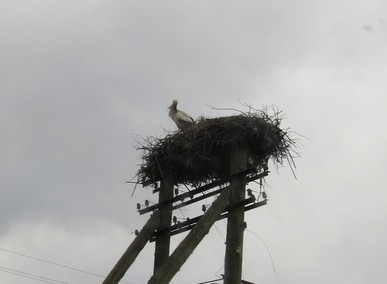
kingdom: Animalia
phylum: Chordata
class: Aves
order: Ciconiiformes
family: Ciconiidae
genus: Ciconia
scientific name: Ciconia ciconia
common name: White stork
